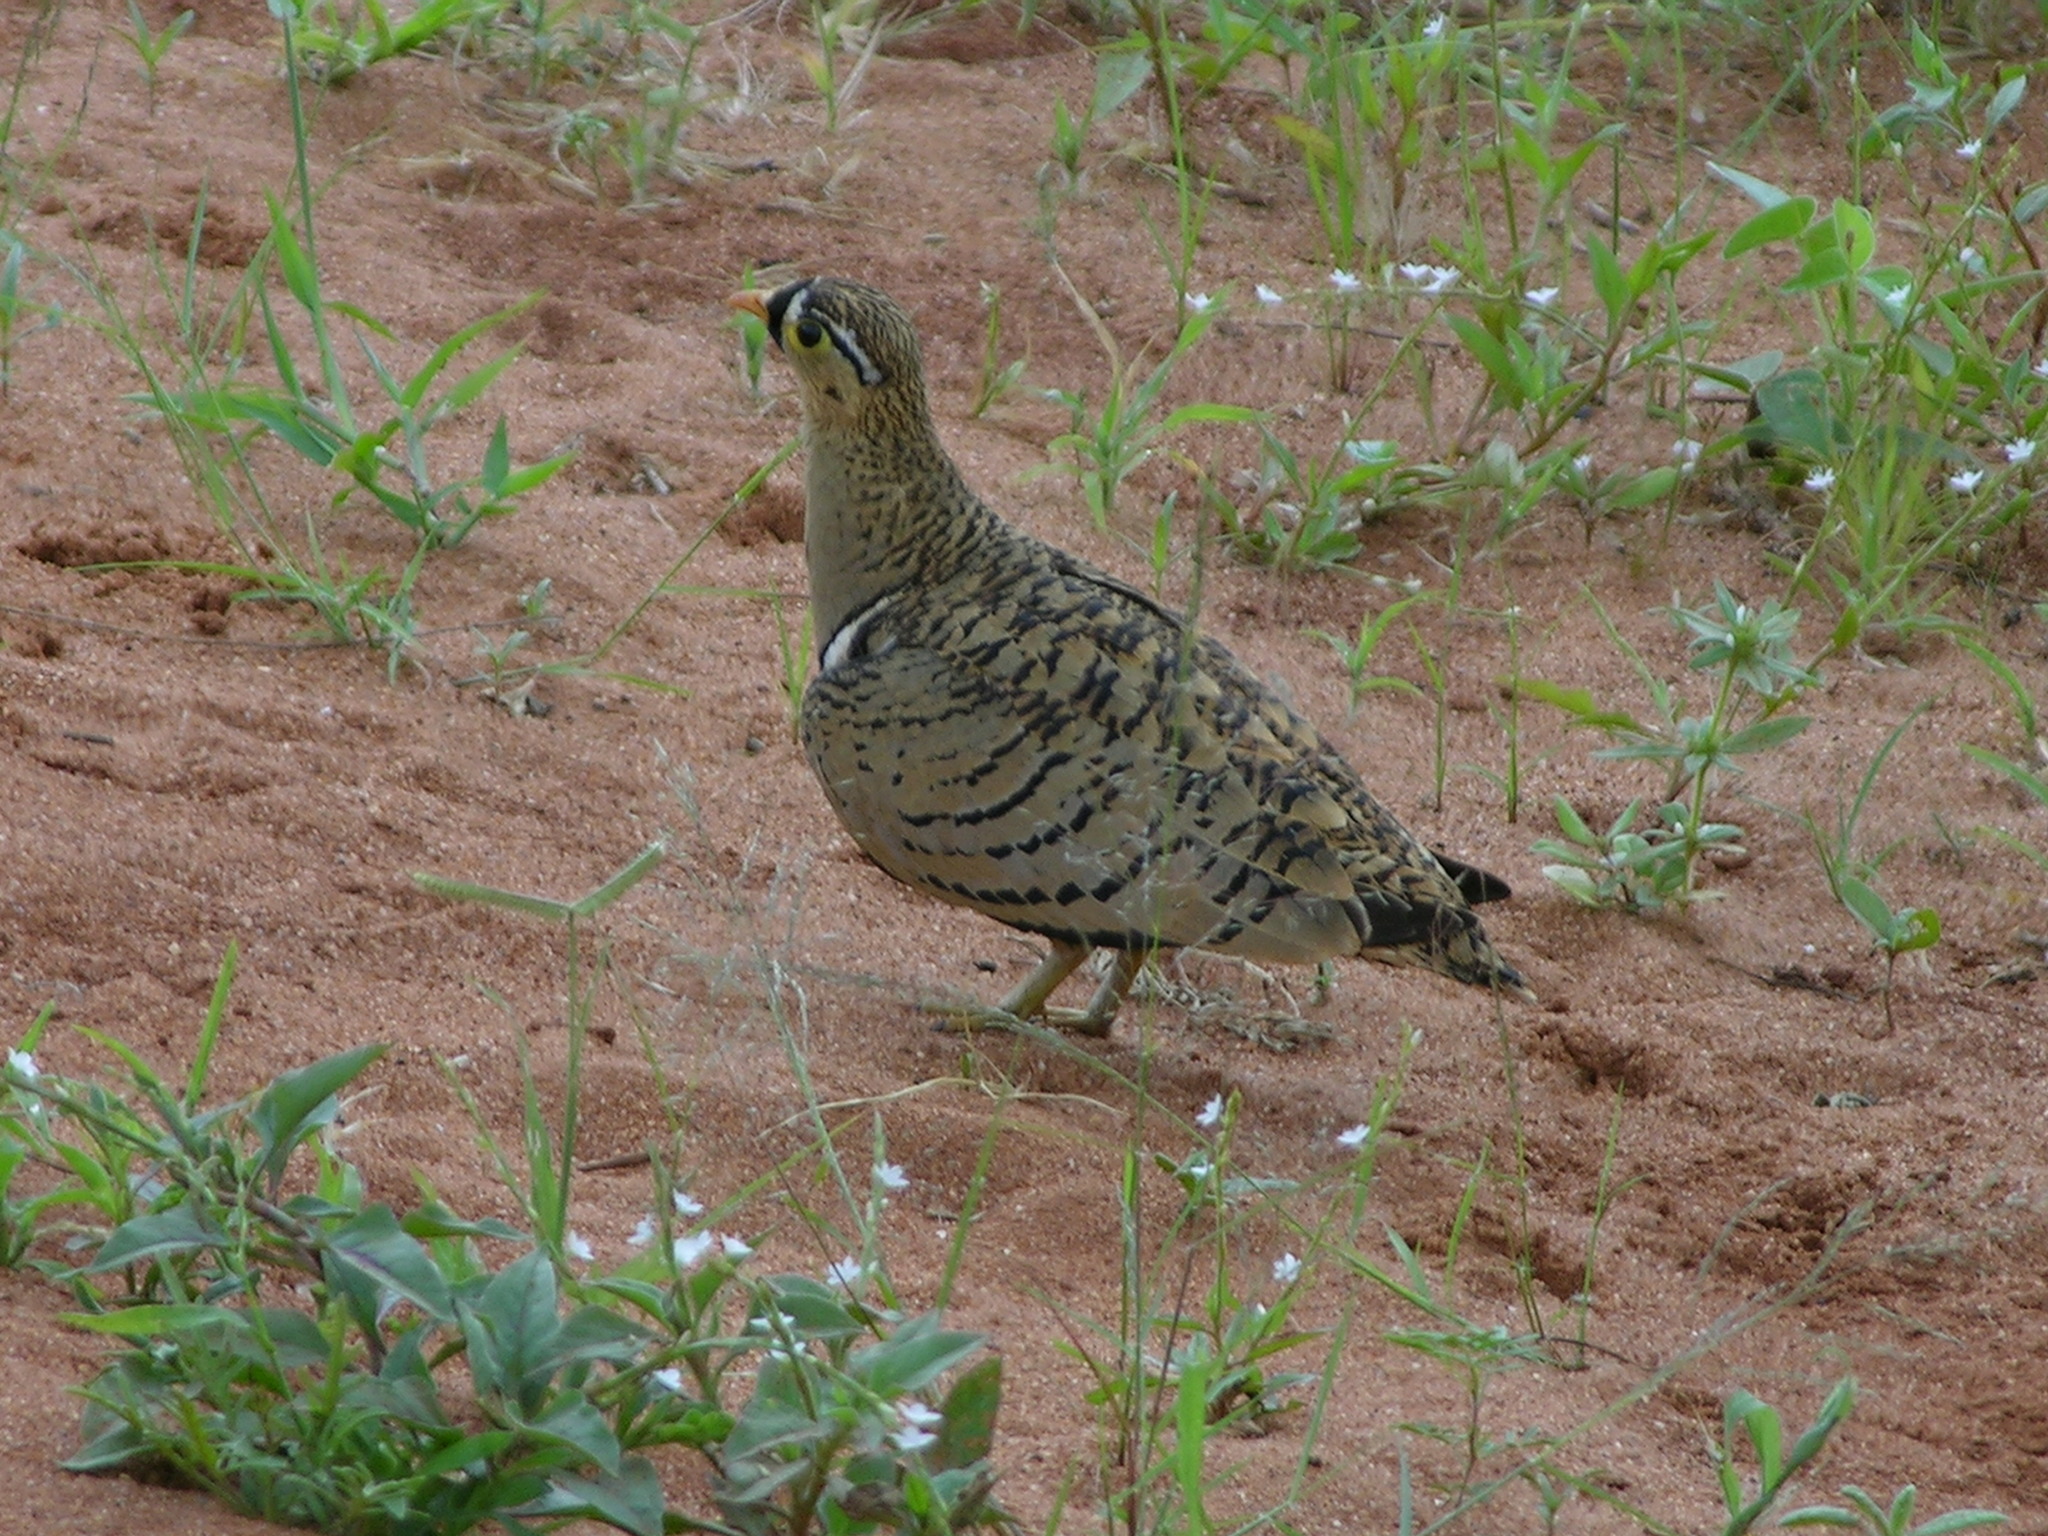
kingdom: Animalia
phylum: Chordata
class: Aves
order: Pteroclidiformes
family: Pteroclididae
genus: Pterocles
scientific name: Pterocles decoratus
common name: Black-faced sandgrouse
